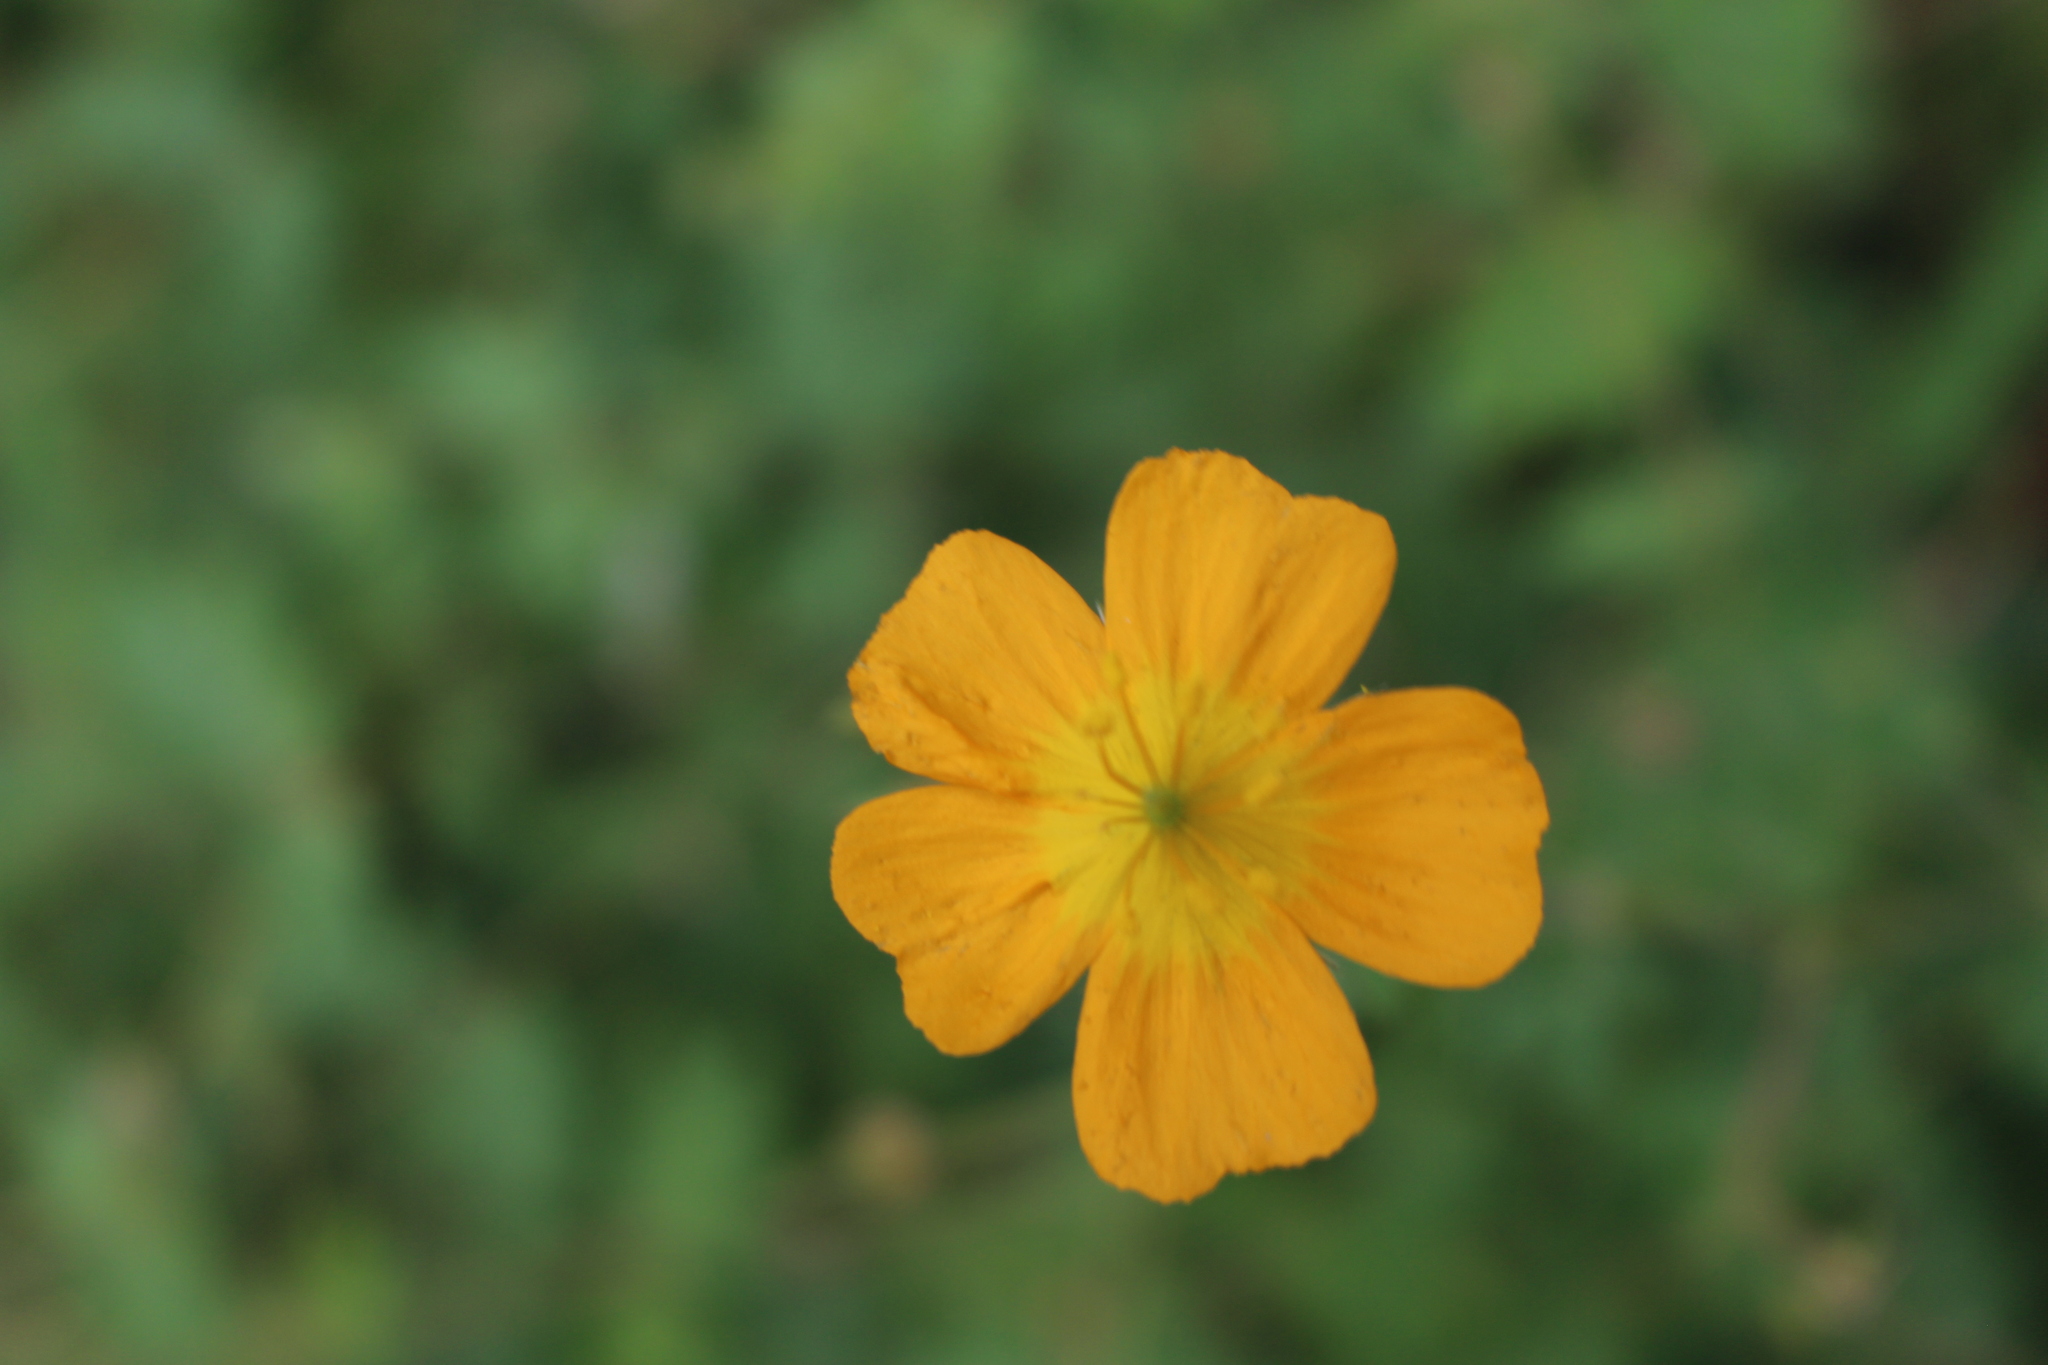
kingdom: Plantae
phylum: Tracheophyta
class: Magnoliopsida
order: Zygophyllales
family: Zygophyllaceae
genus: Kallstroemia
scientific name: Kallstroemia peninsularis
